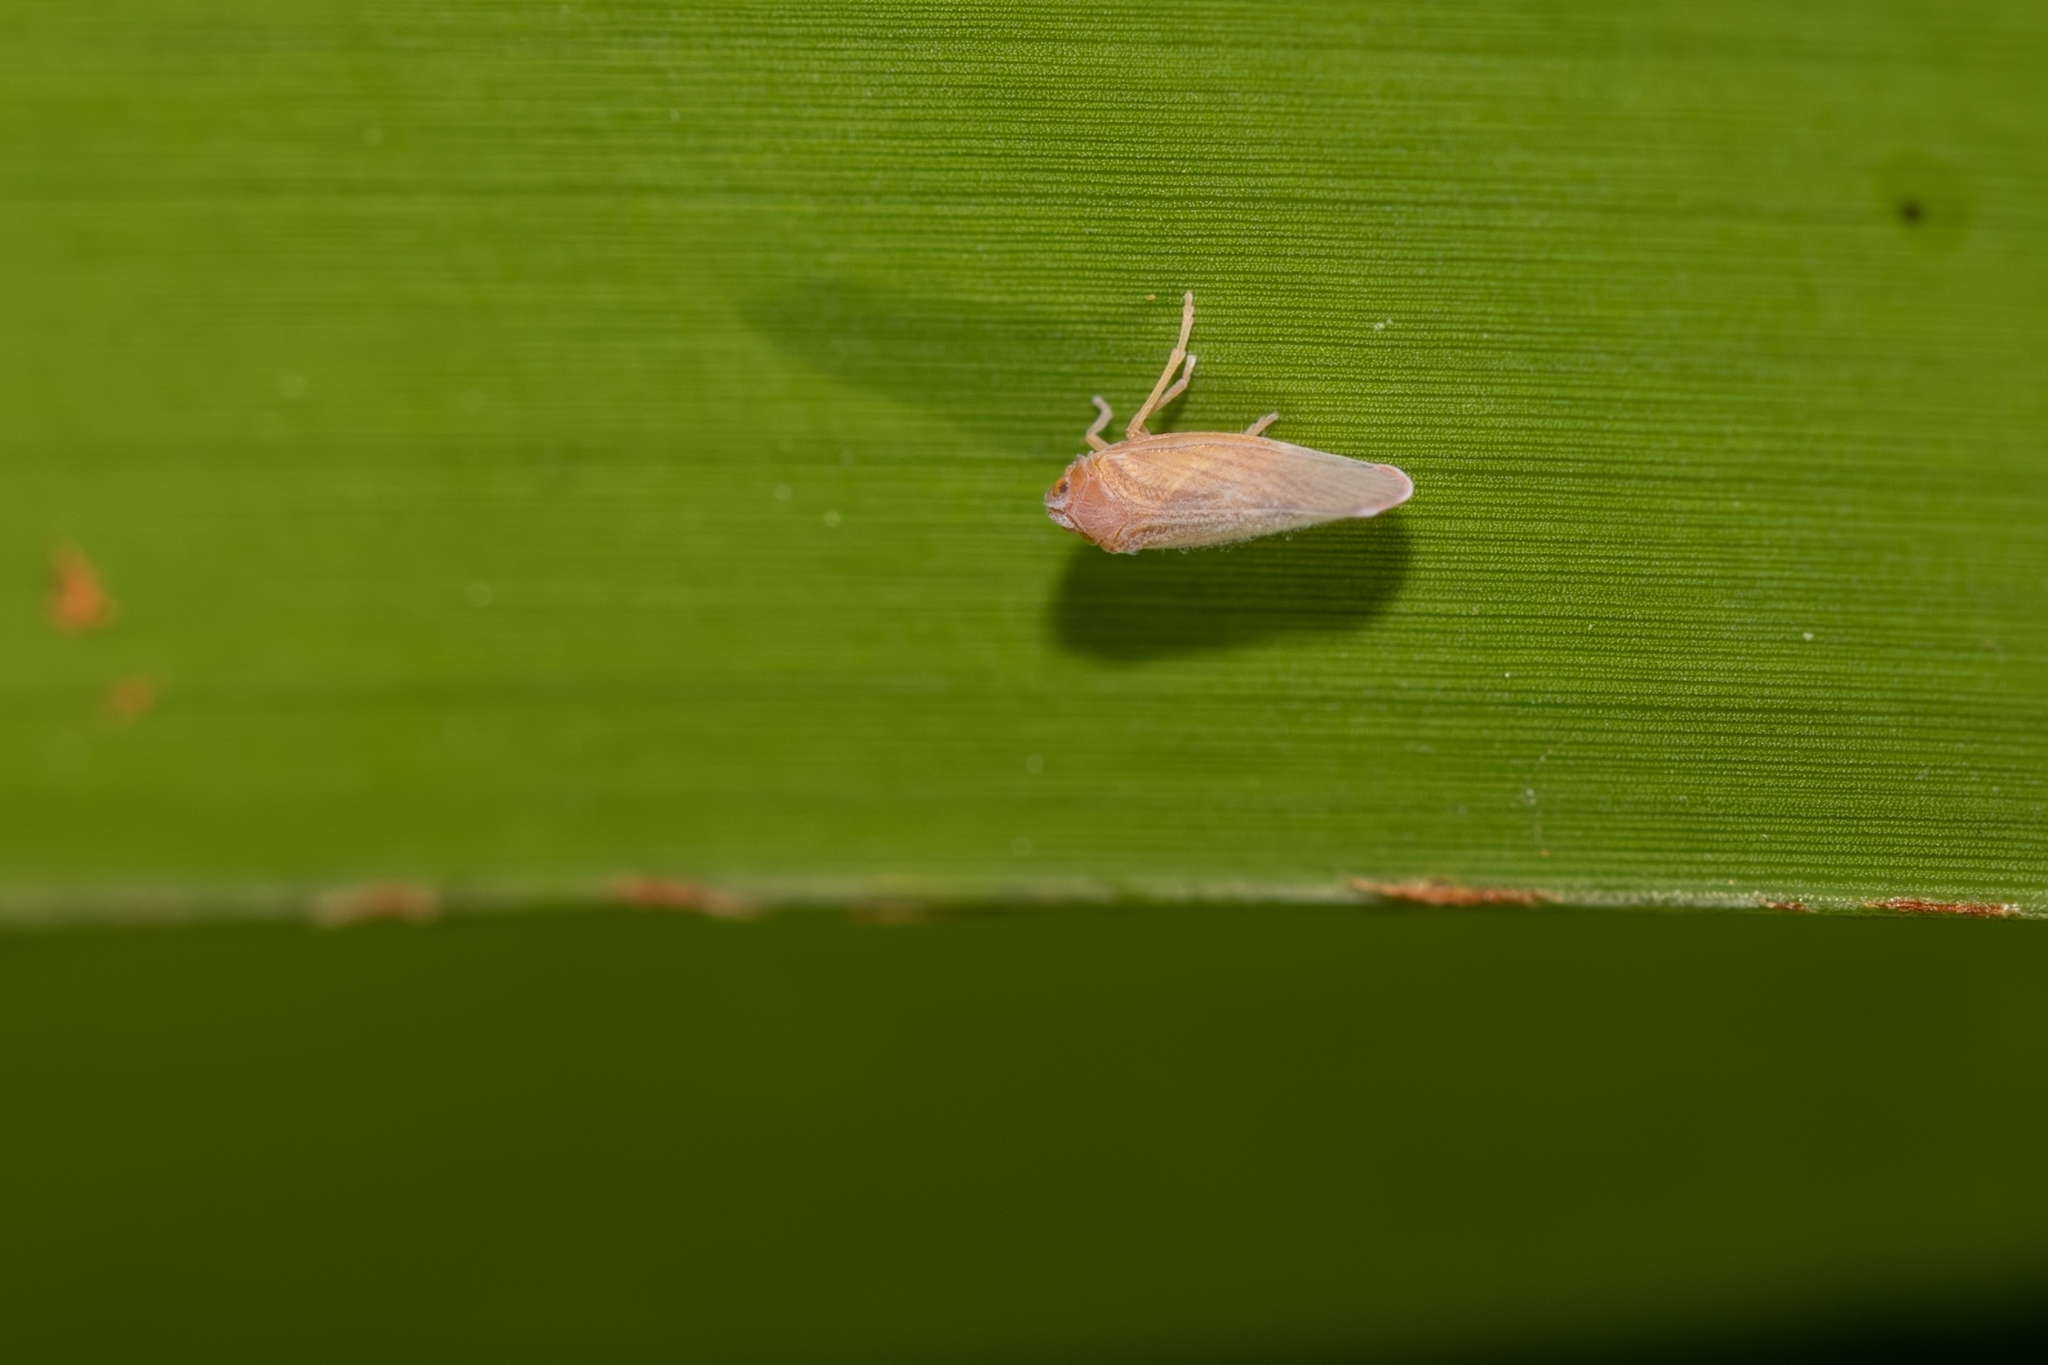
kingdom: Animalia
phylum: Arthropoda
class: Insecta
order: Hemiptera
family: Derbidae
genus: Omolicna
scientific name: Omolicna joi
